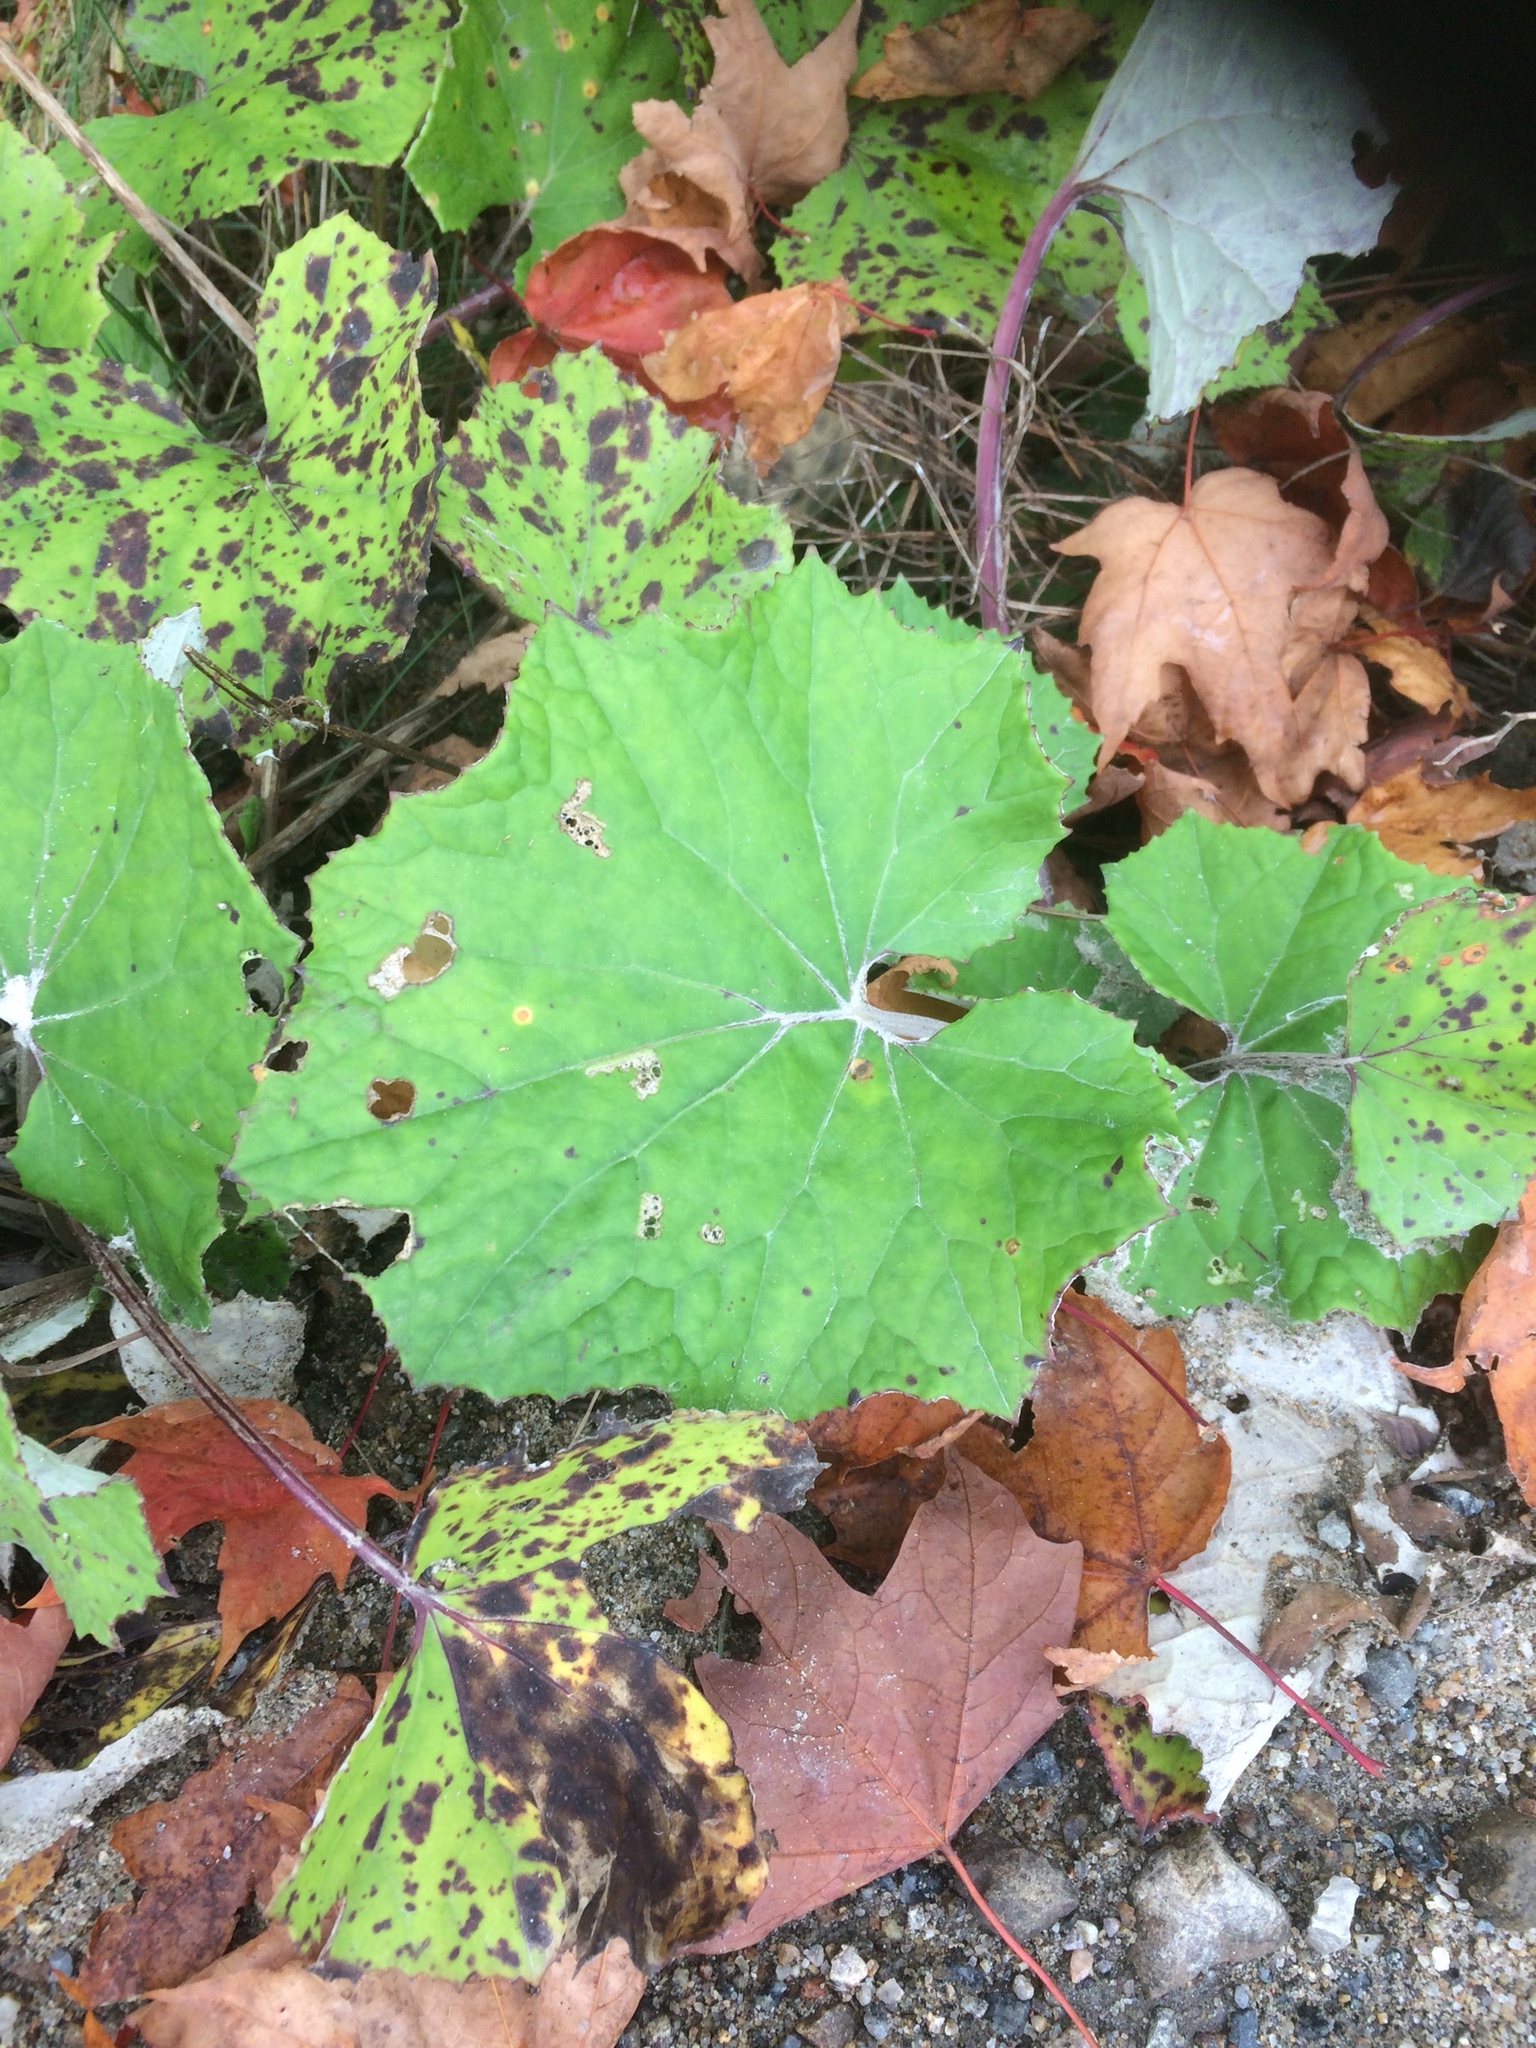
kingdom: Plantae
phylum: Tracheophyta
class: Magnoliopsida
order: Asterales
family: Asteraceae
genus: Tussilago
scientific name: Tussilago farfara
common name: Coltsfoot
